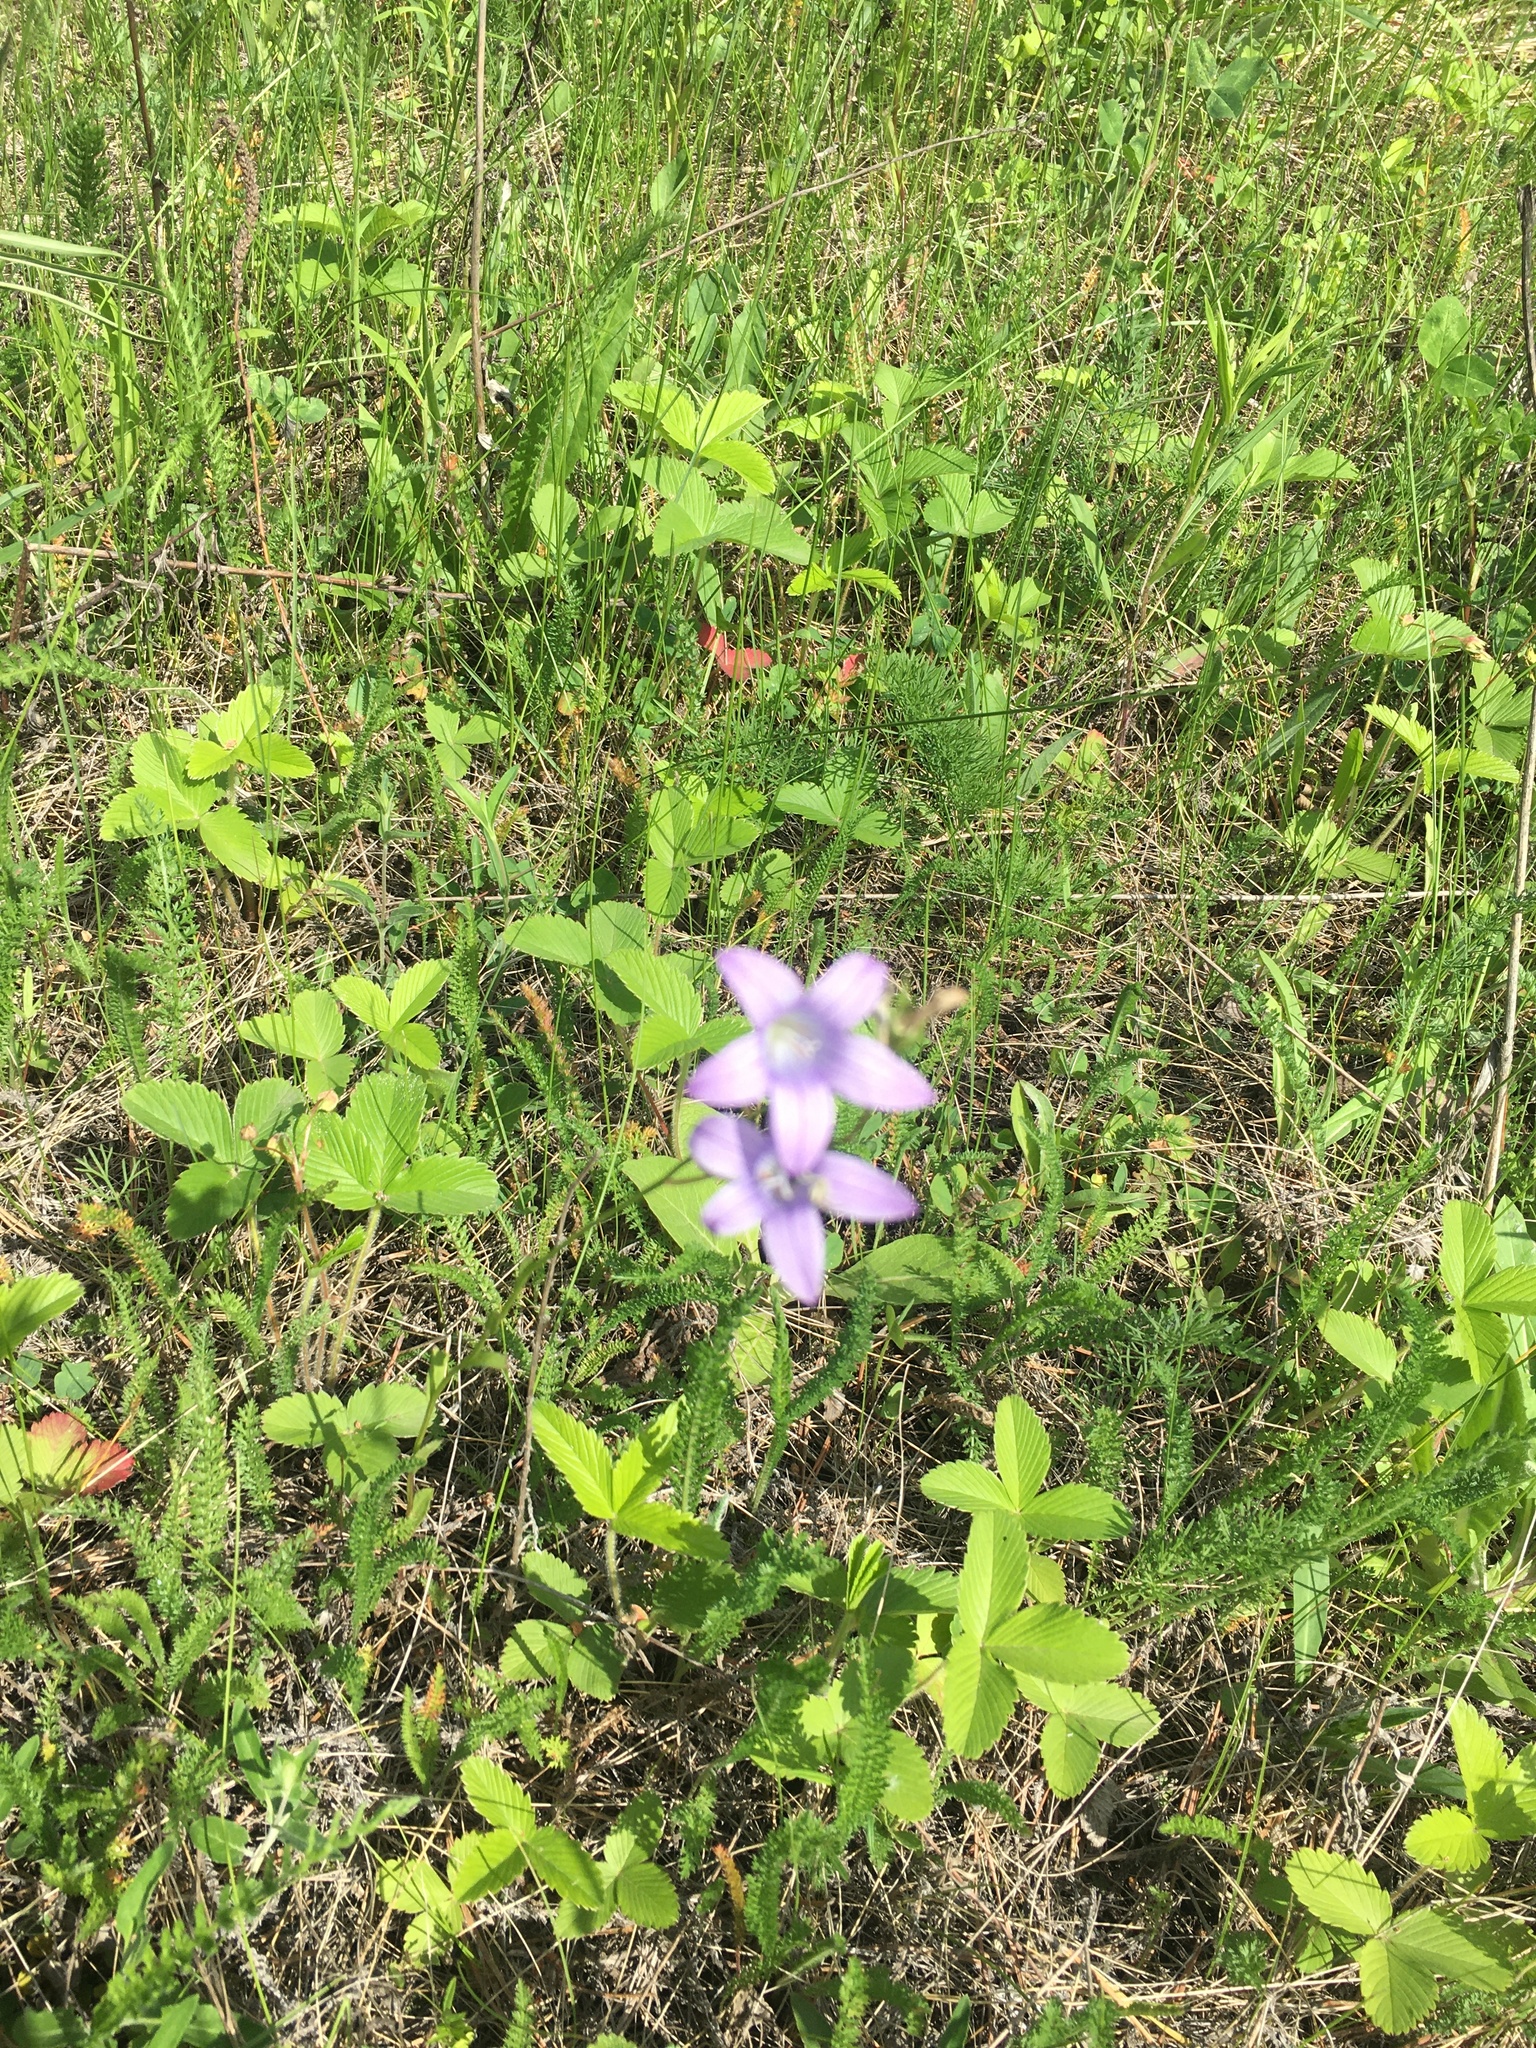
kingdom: Plantae
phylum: Tracheophyta
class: Magnoliopsida
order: Asterales
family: Campanulaceae
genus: Campanula
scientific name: Campanula patula
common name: Spreading bellflower
